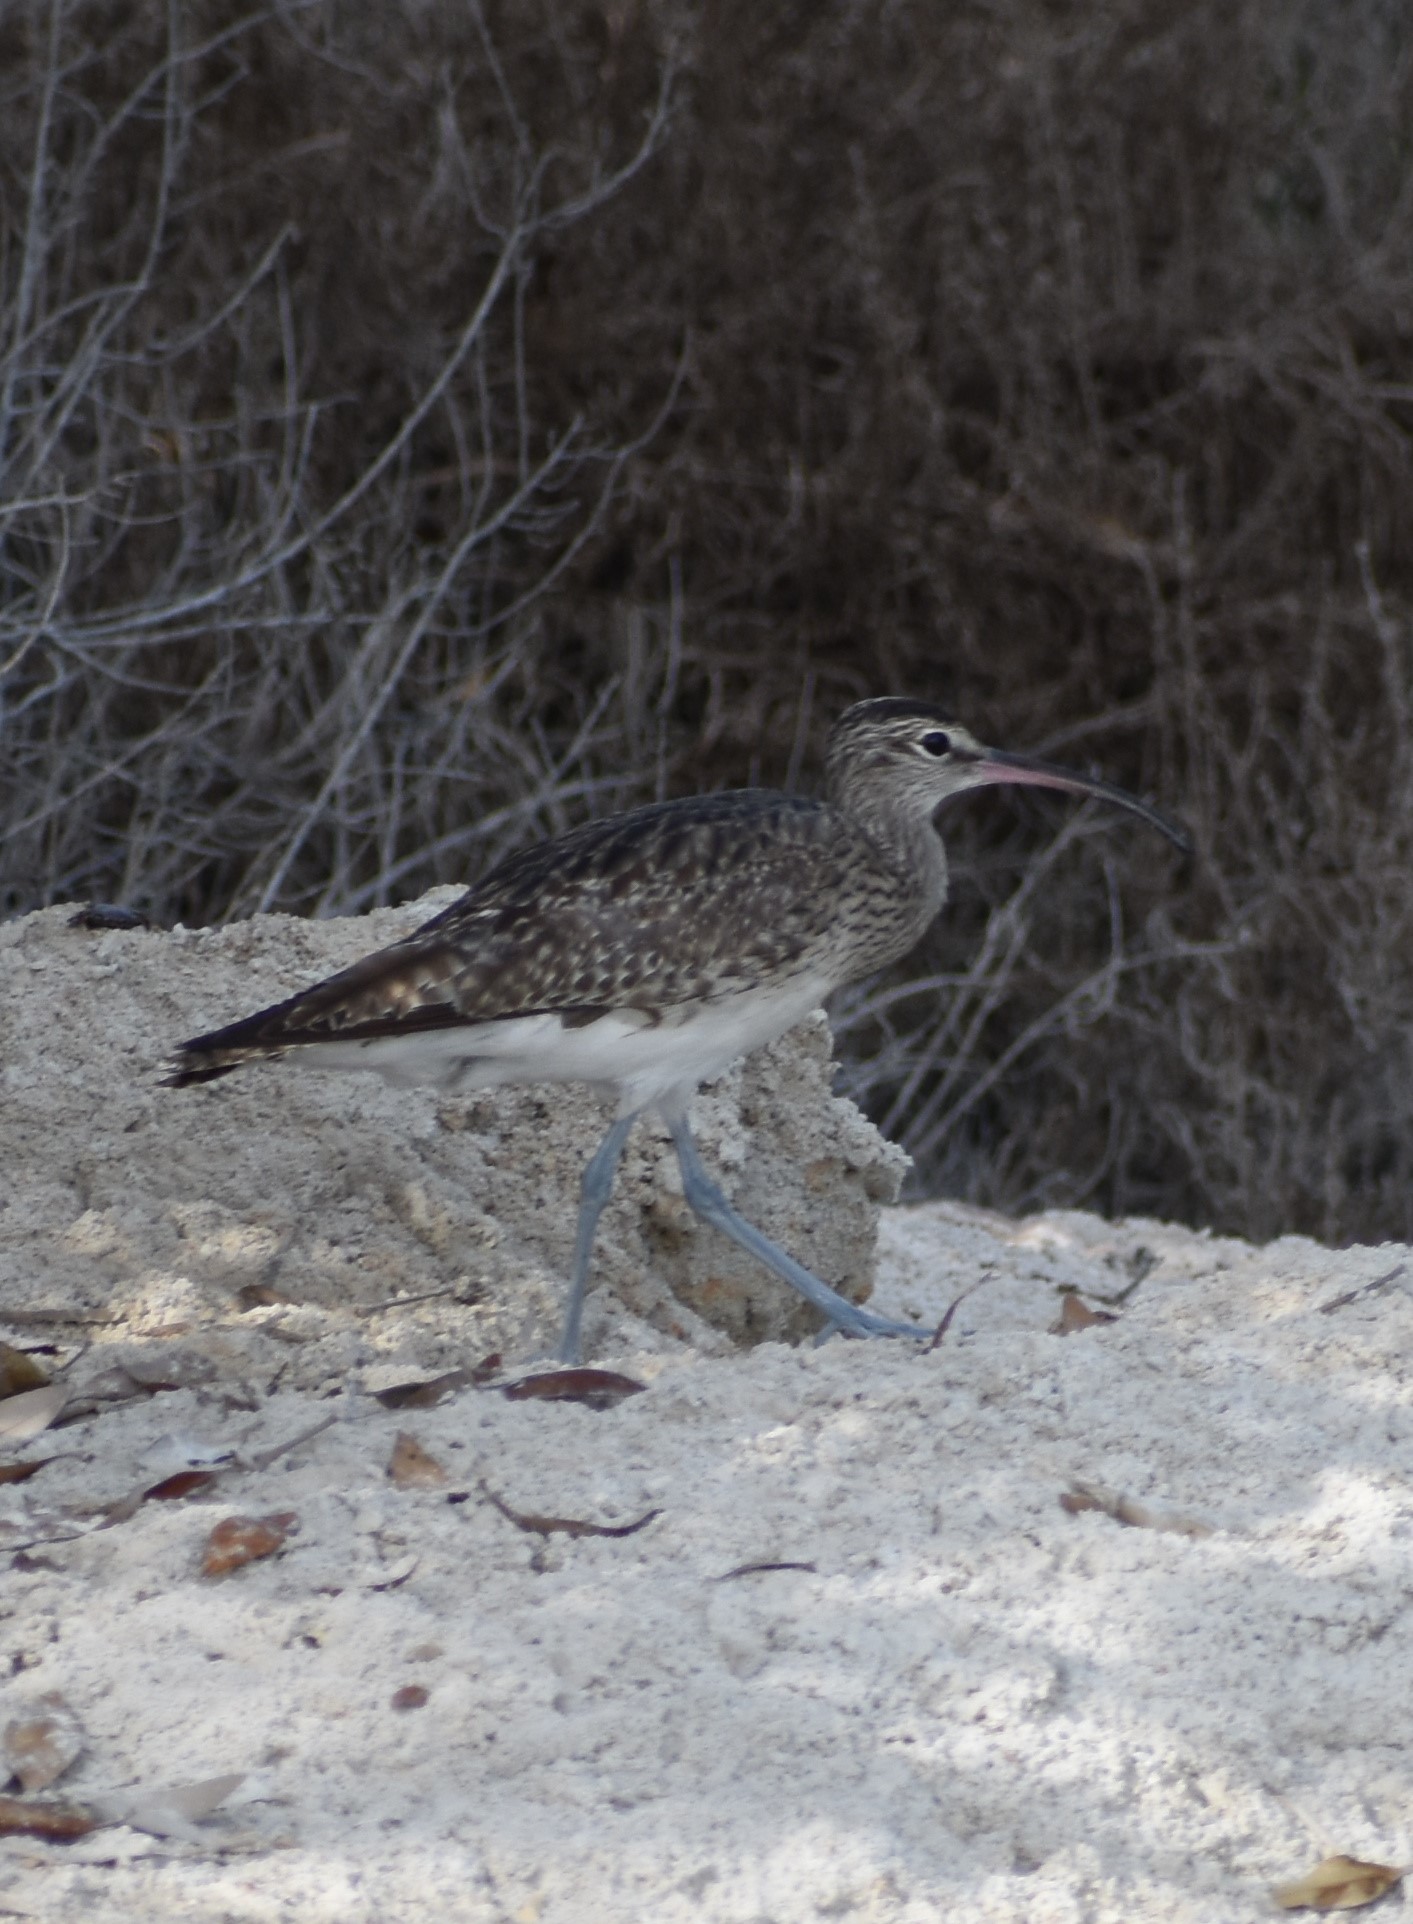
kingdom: Animalia
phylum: Chordata
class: Aves
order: Charadriiformes
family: Scolopacidae
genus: Numenius
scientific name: Numenius phaeopus
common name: Whimbrel
